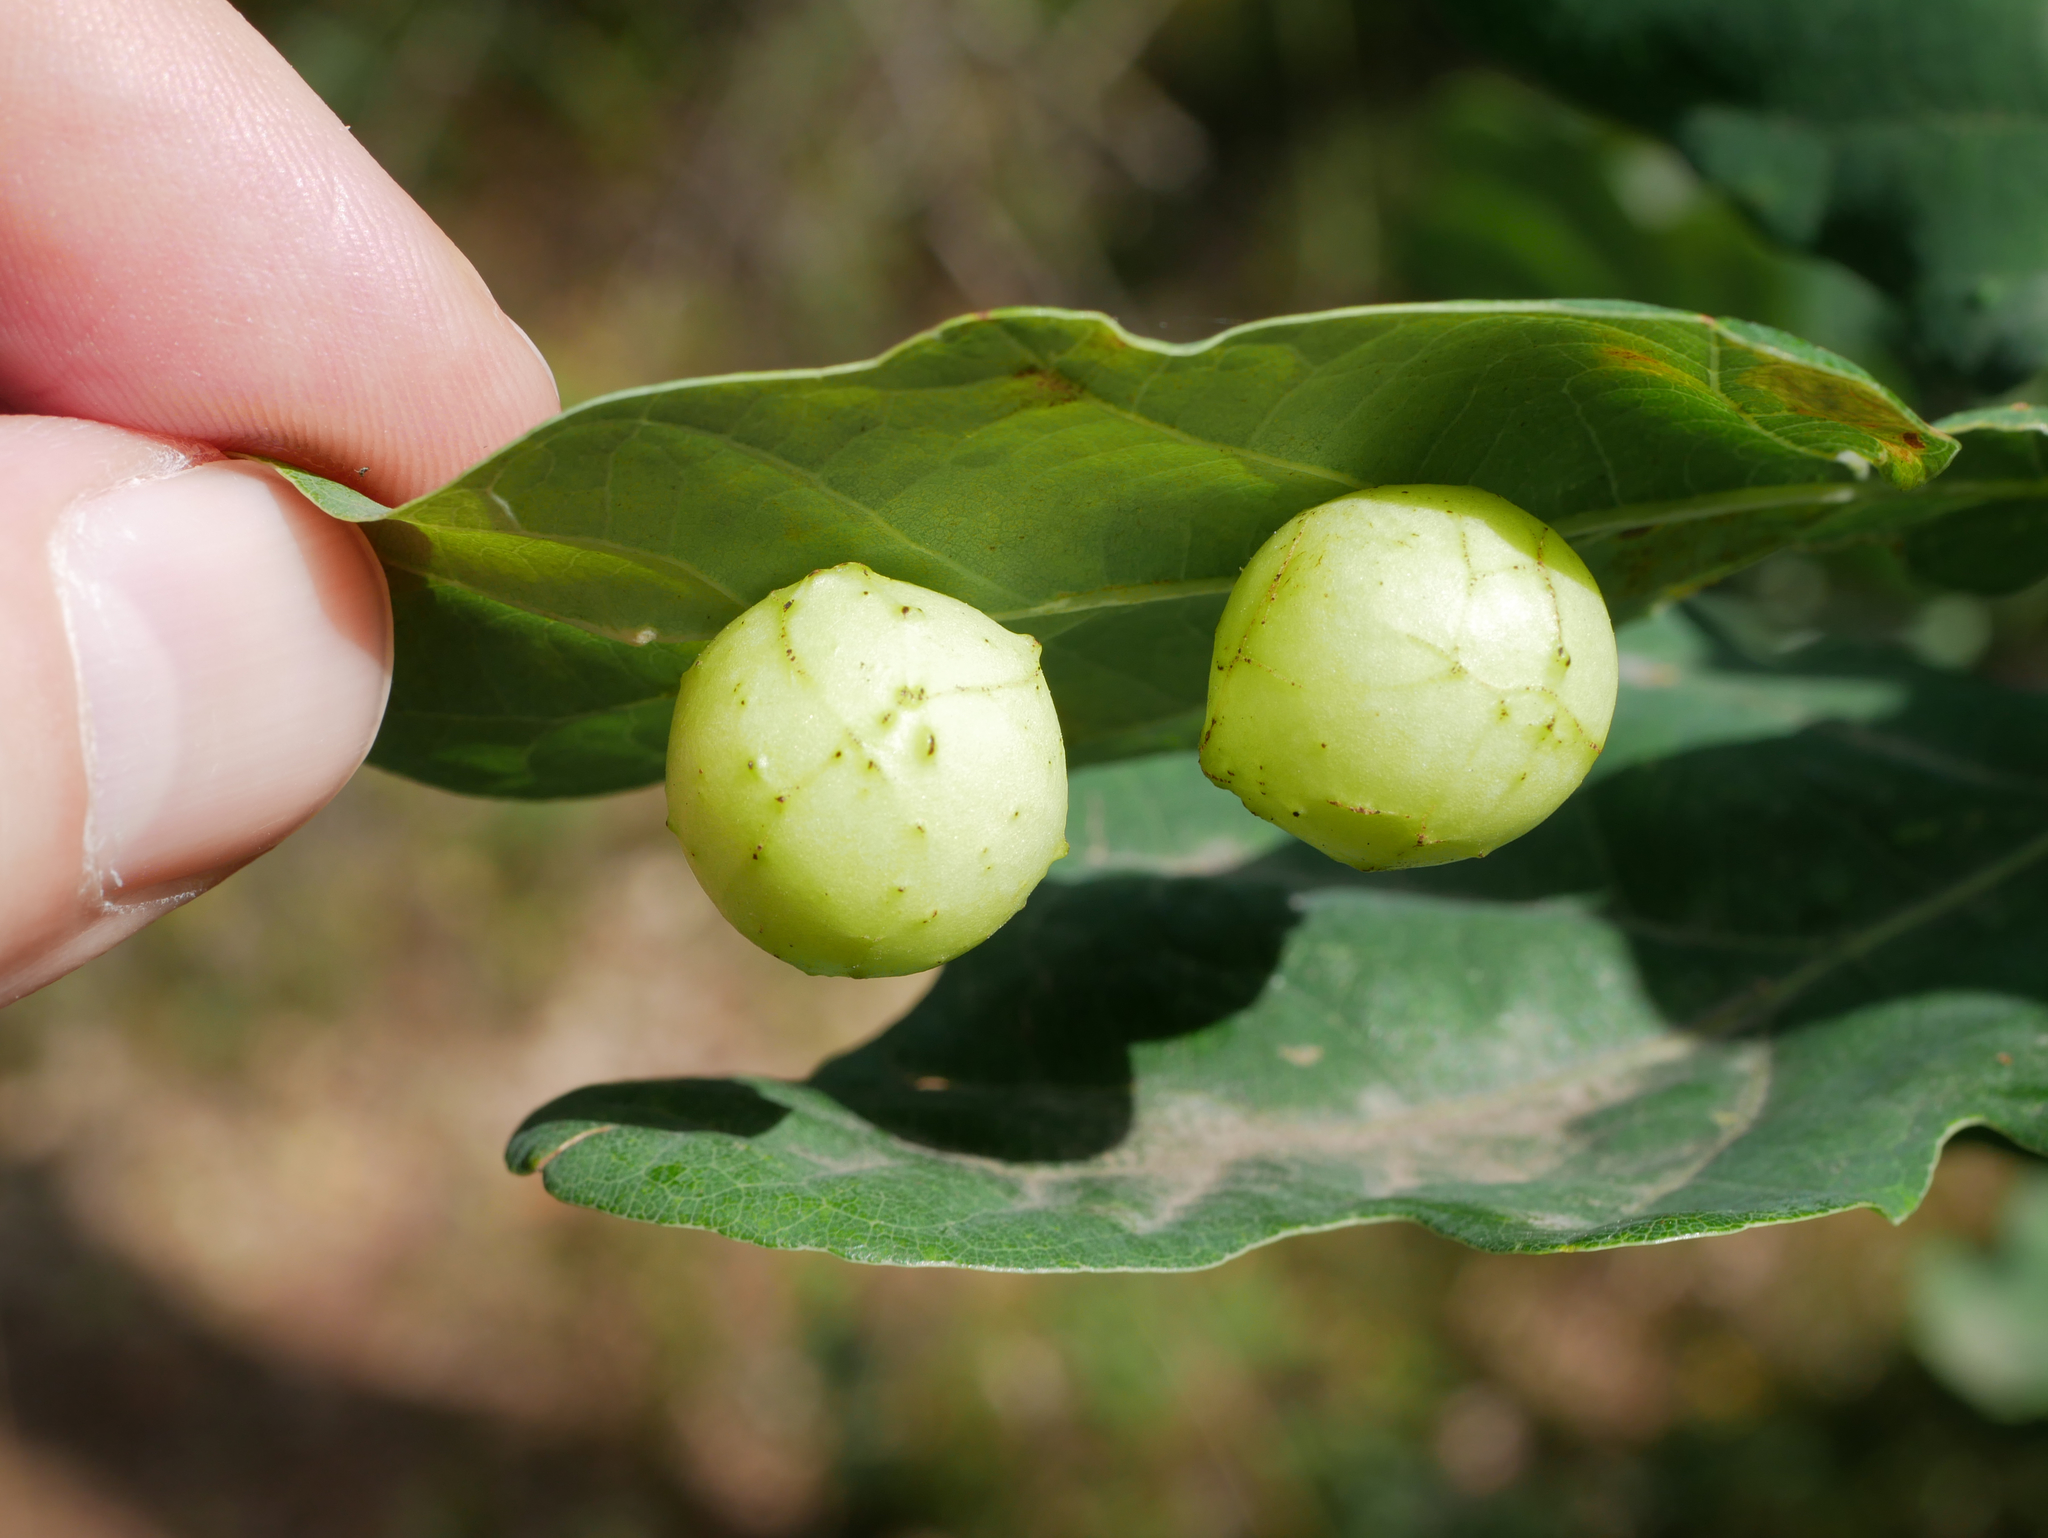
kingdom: Animalia
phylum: Arthropoda
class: Insecta
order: Hymenoptera
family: Cynipidae
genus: Cynips
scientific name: Cynips quercusfolii
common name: Cherry gall
